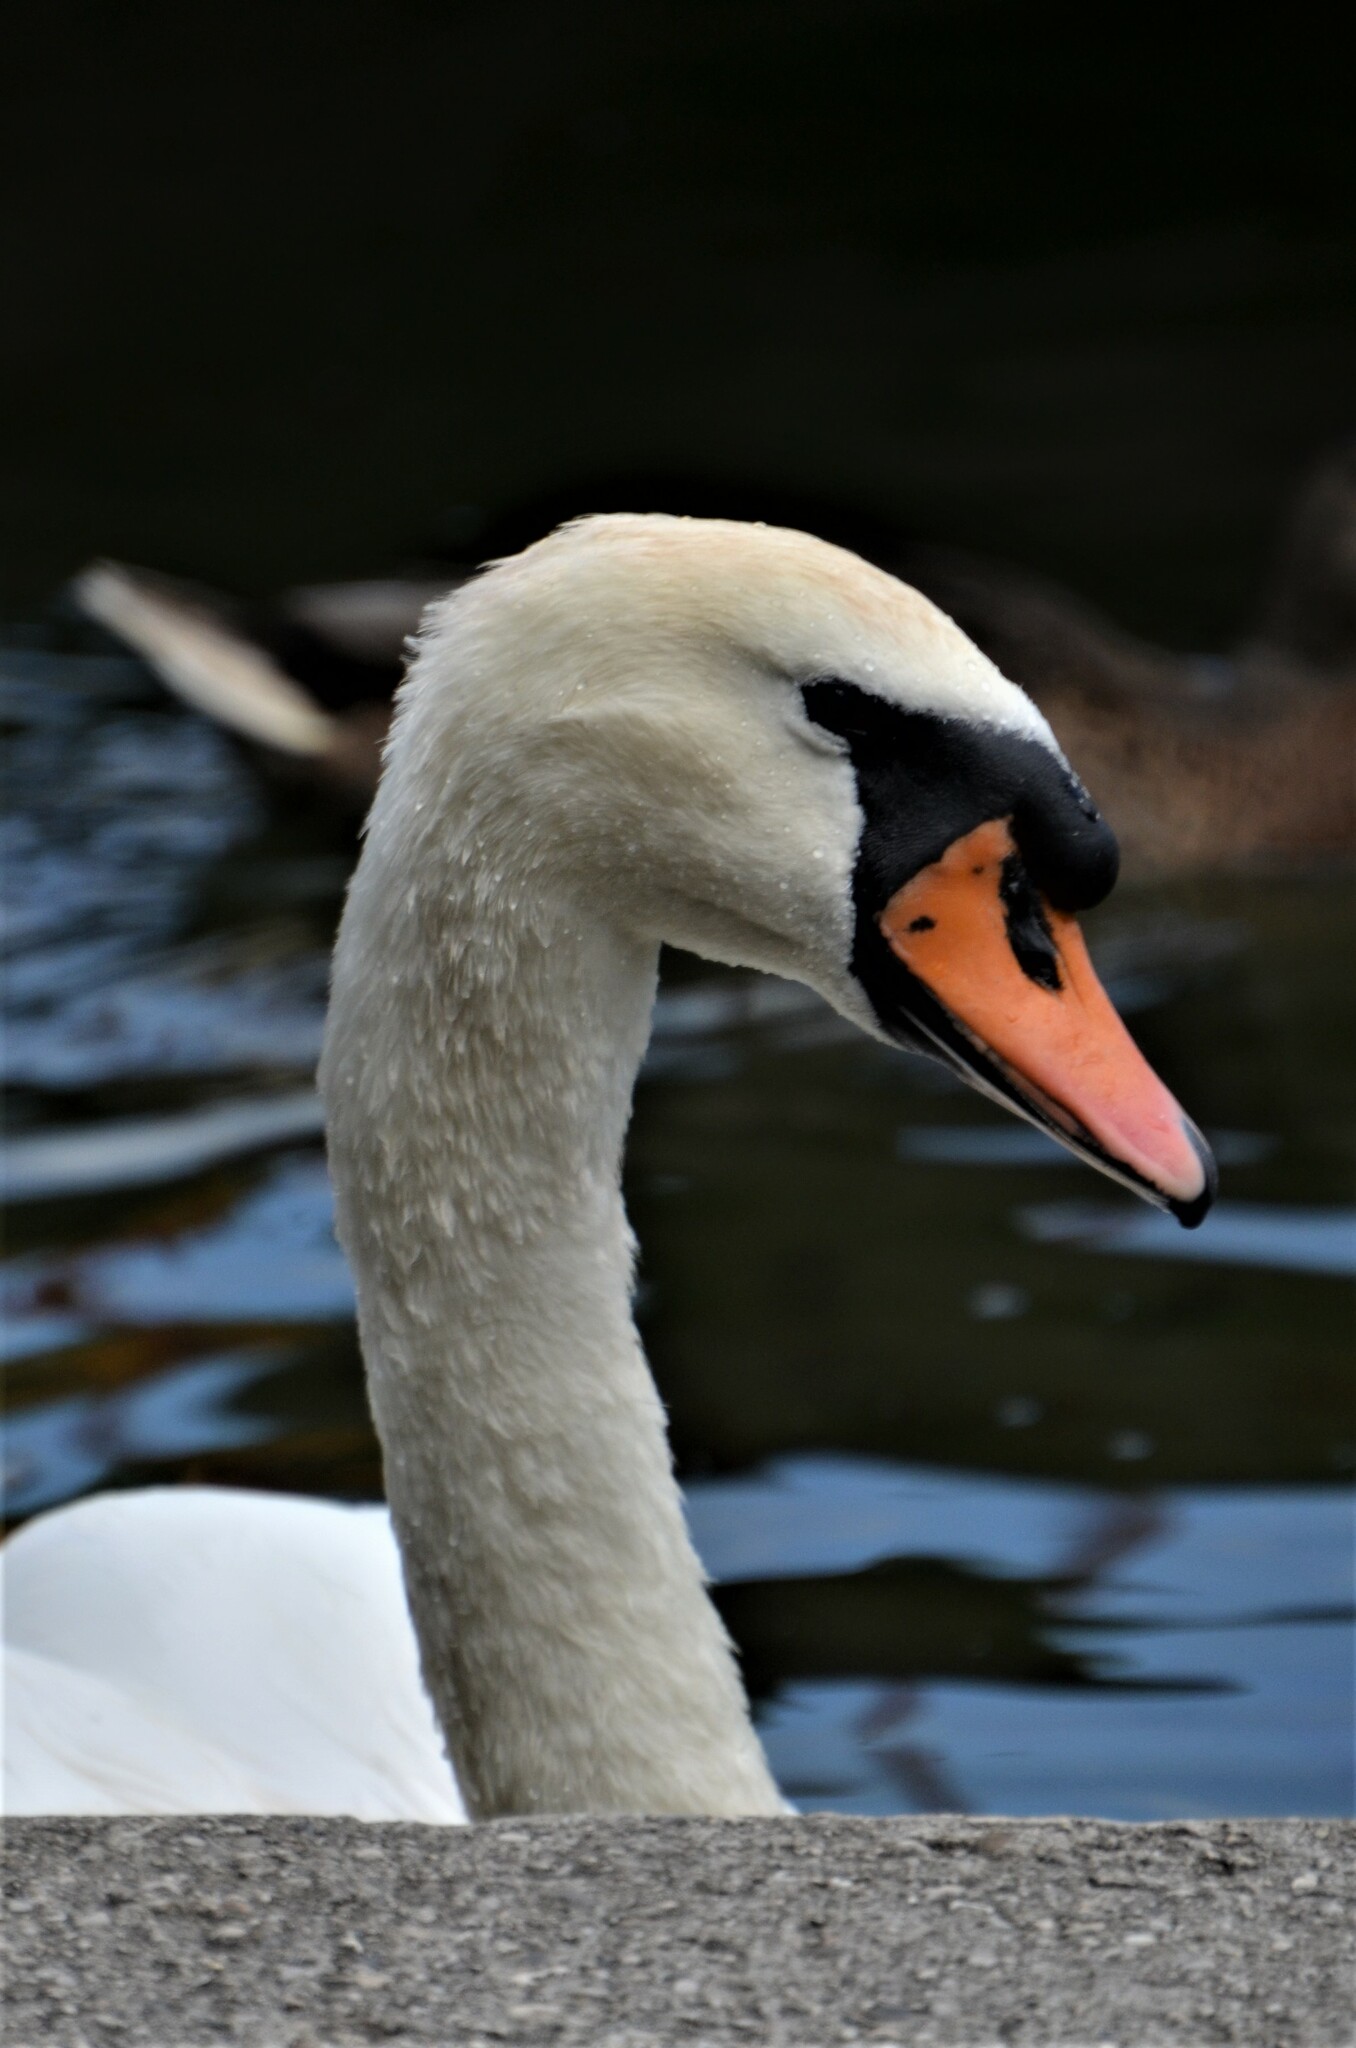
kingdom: Animalia
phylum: Chordata
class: Aves
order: Anseriformes
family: Anatidae
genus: Cygnus
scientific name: Cygnus olor
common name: Mute swan
